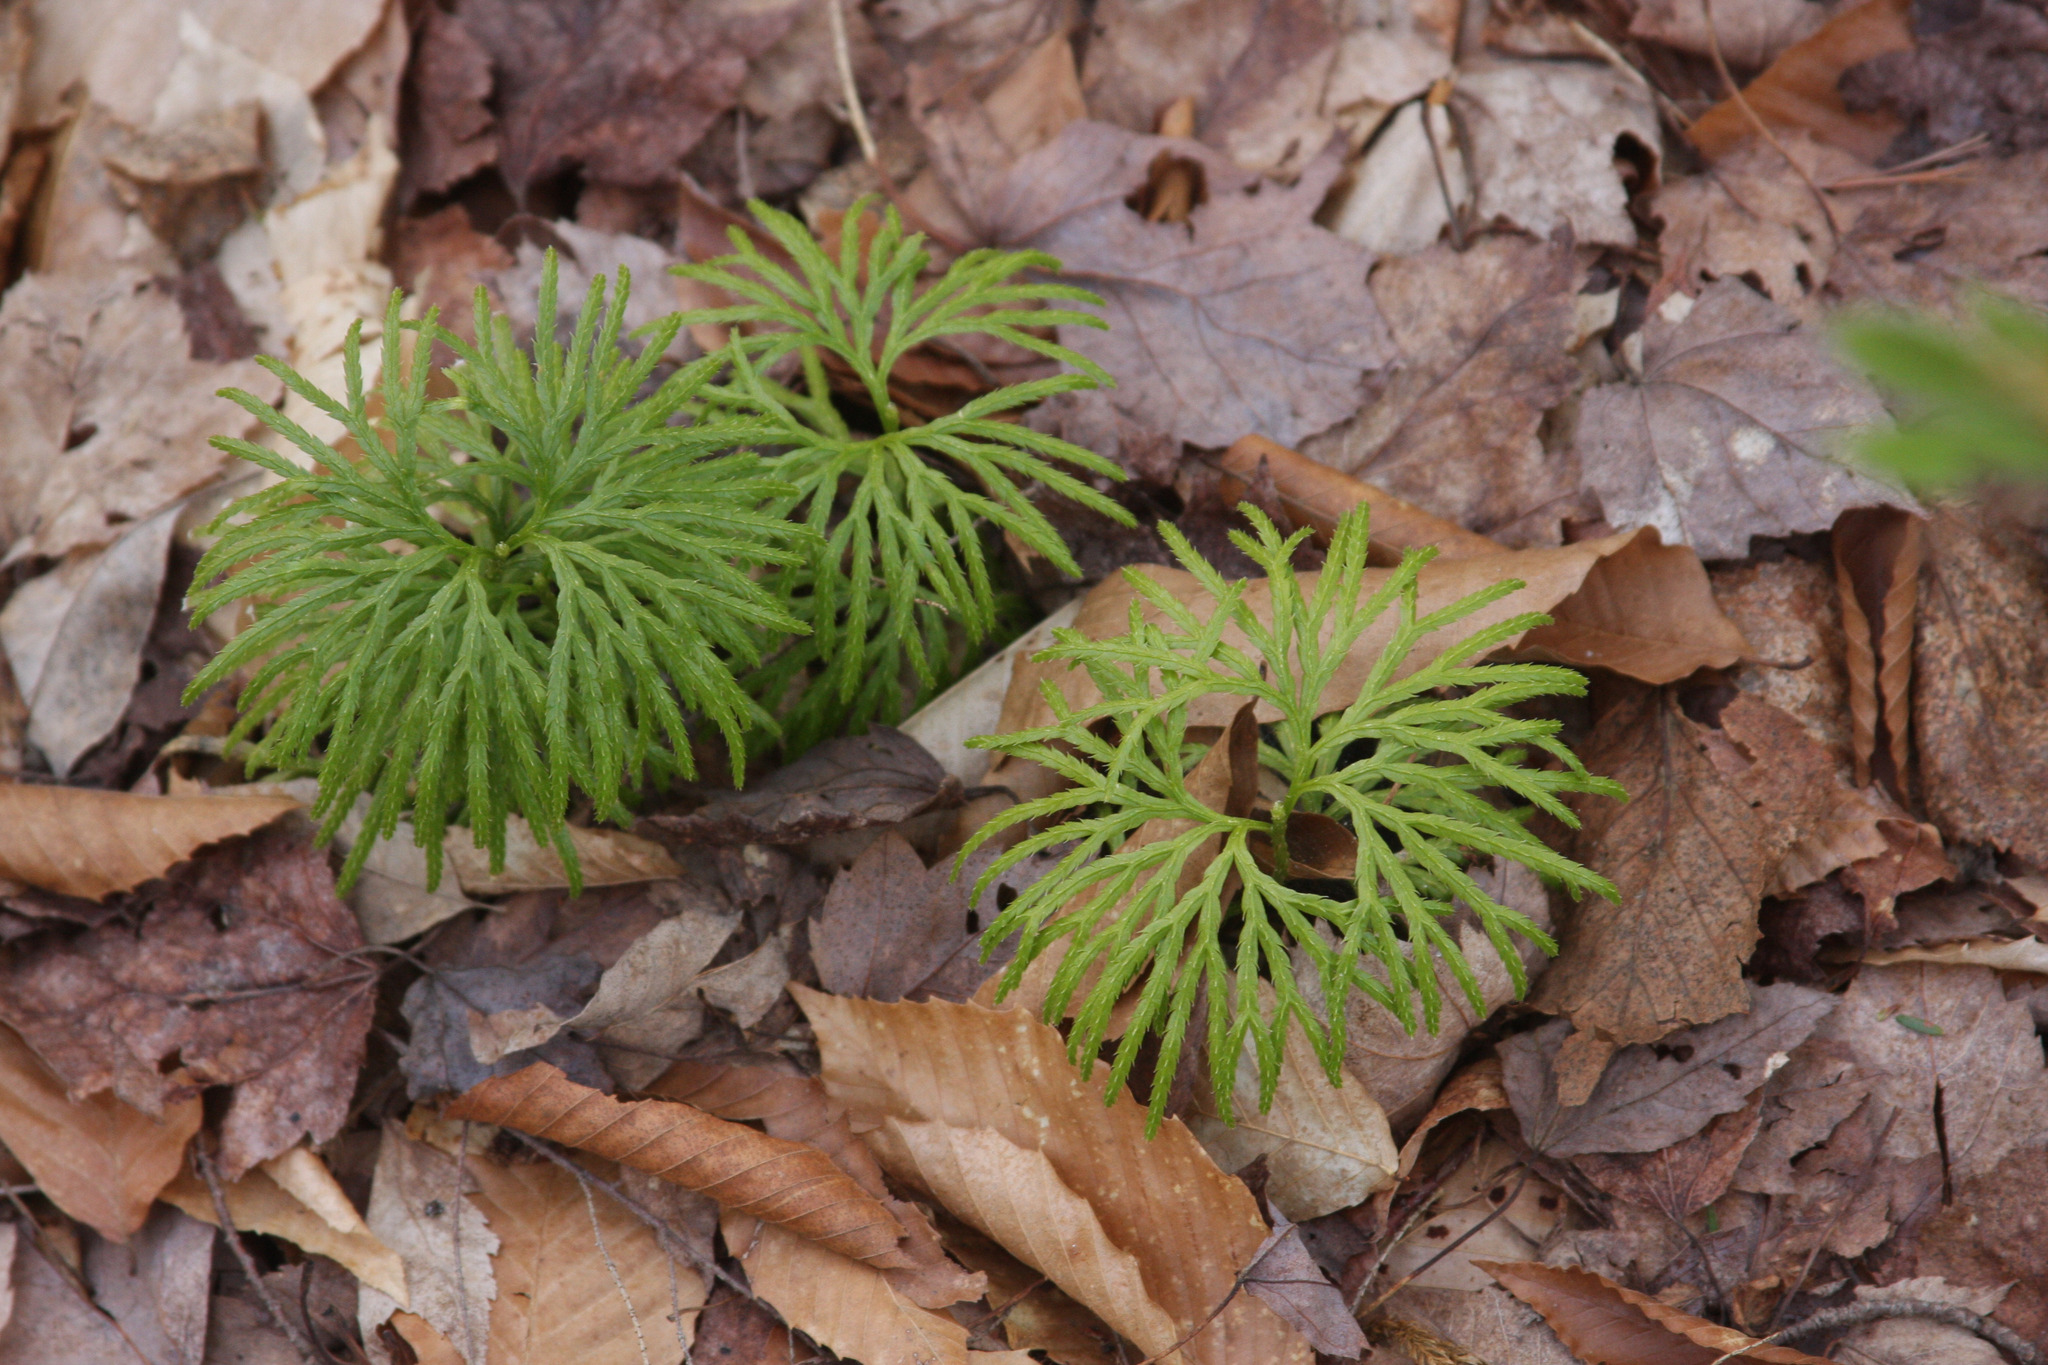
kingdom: Plantae
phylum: Tracheophyta
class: Lycopodiopsida
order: Lycopodiales
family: Lycopodiaceae
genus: Diphasiastrum
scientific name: Diphasiastrum digitatum
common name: Southern running-pine
